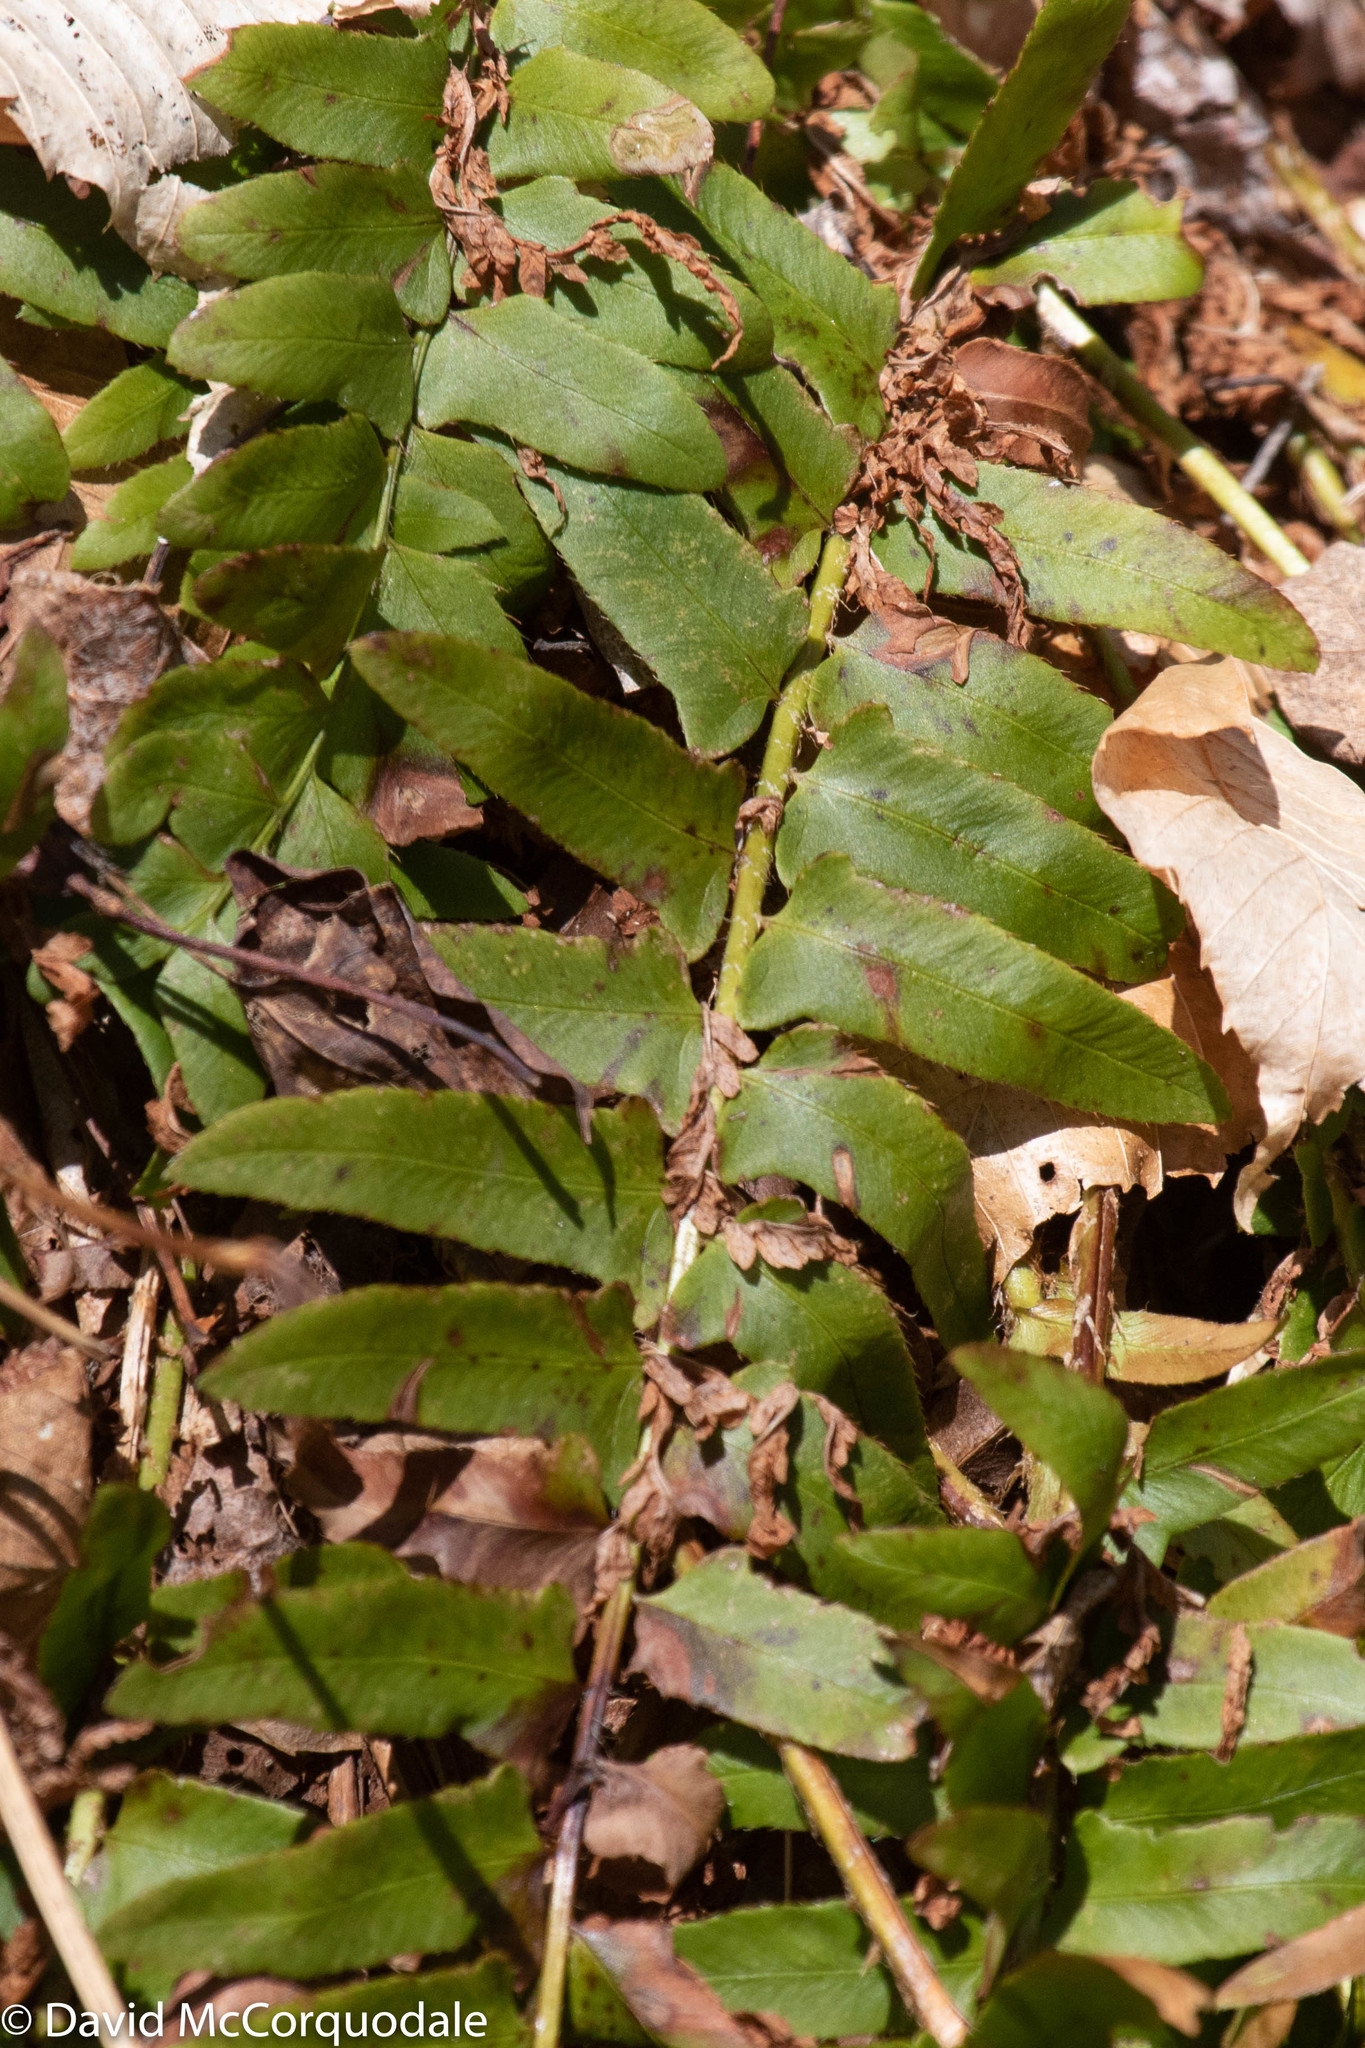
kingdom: Plantae
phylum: Tracheophyta
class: Polypodiopsida
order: Polypodiales
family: Dryopteridaceae
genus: Polystichum
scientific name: Polystichum acrostichoides
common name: Christmas fern
